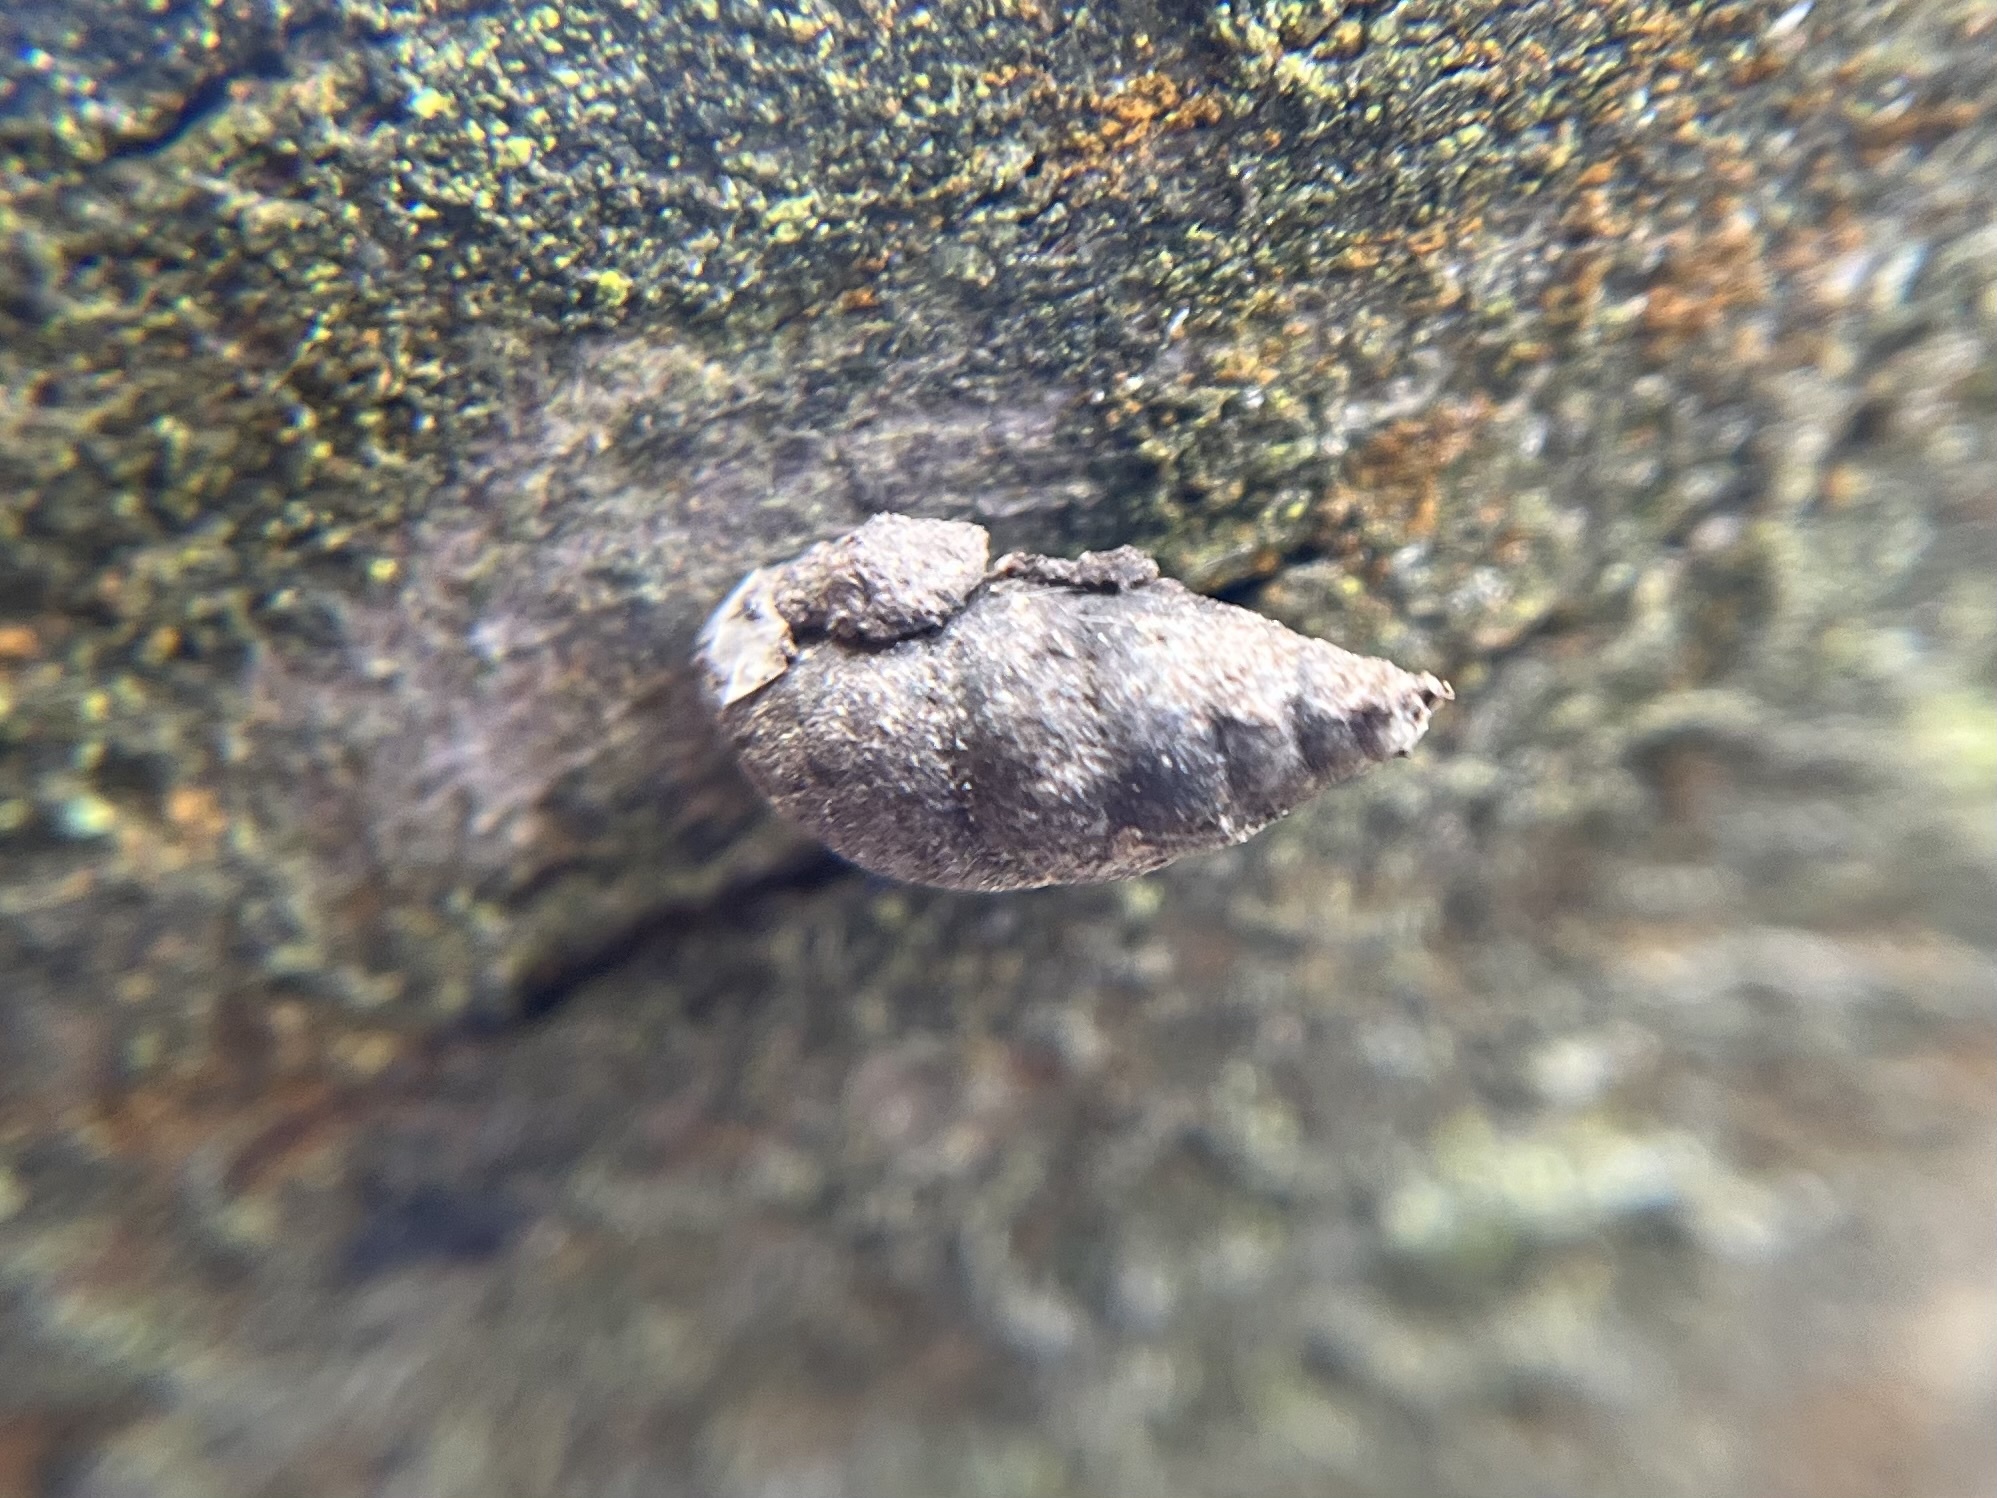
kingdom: Animalia
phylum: Mollusca
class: Gastropoda
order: Stylommatophora
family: Enidae
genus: Merdigera
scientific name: Merdigera obscura
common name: Lesser bulin
